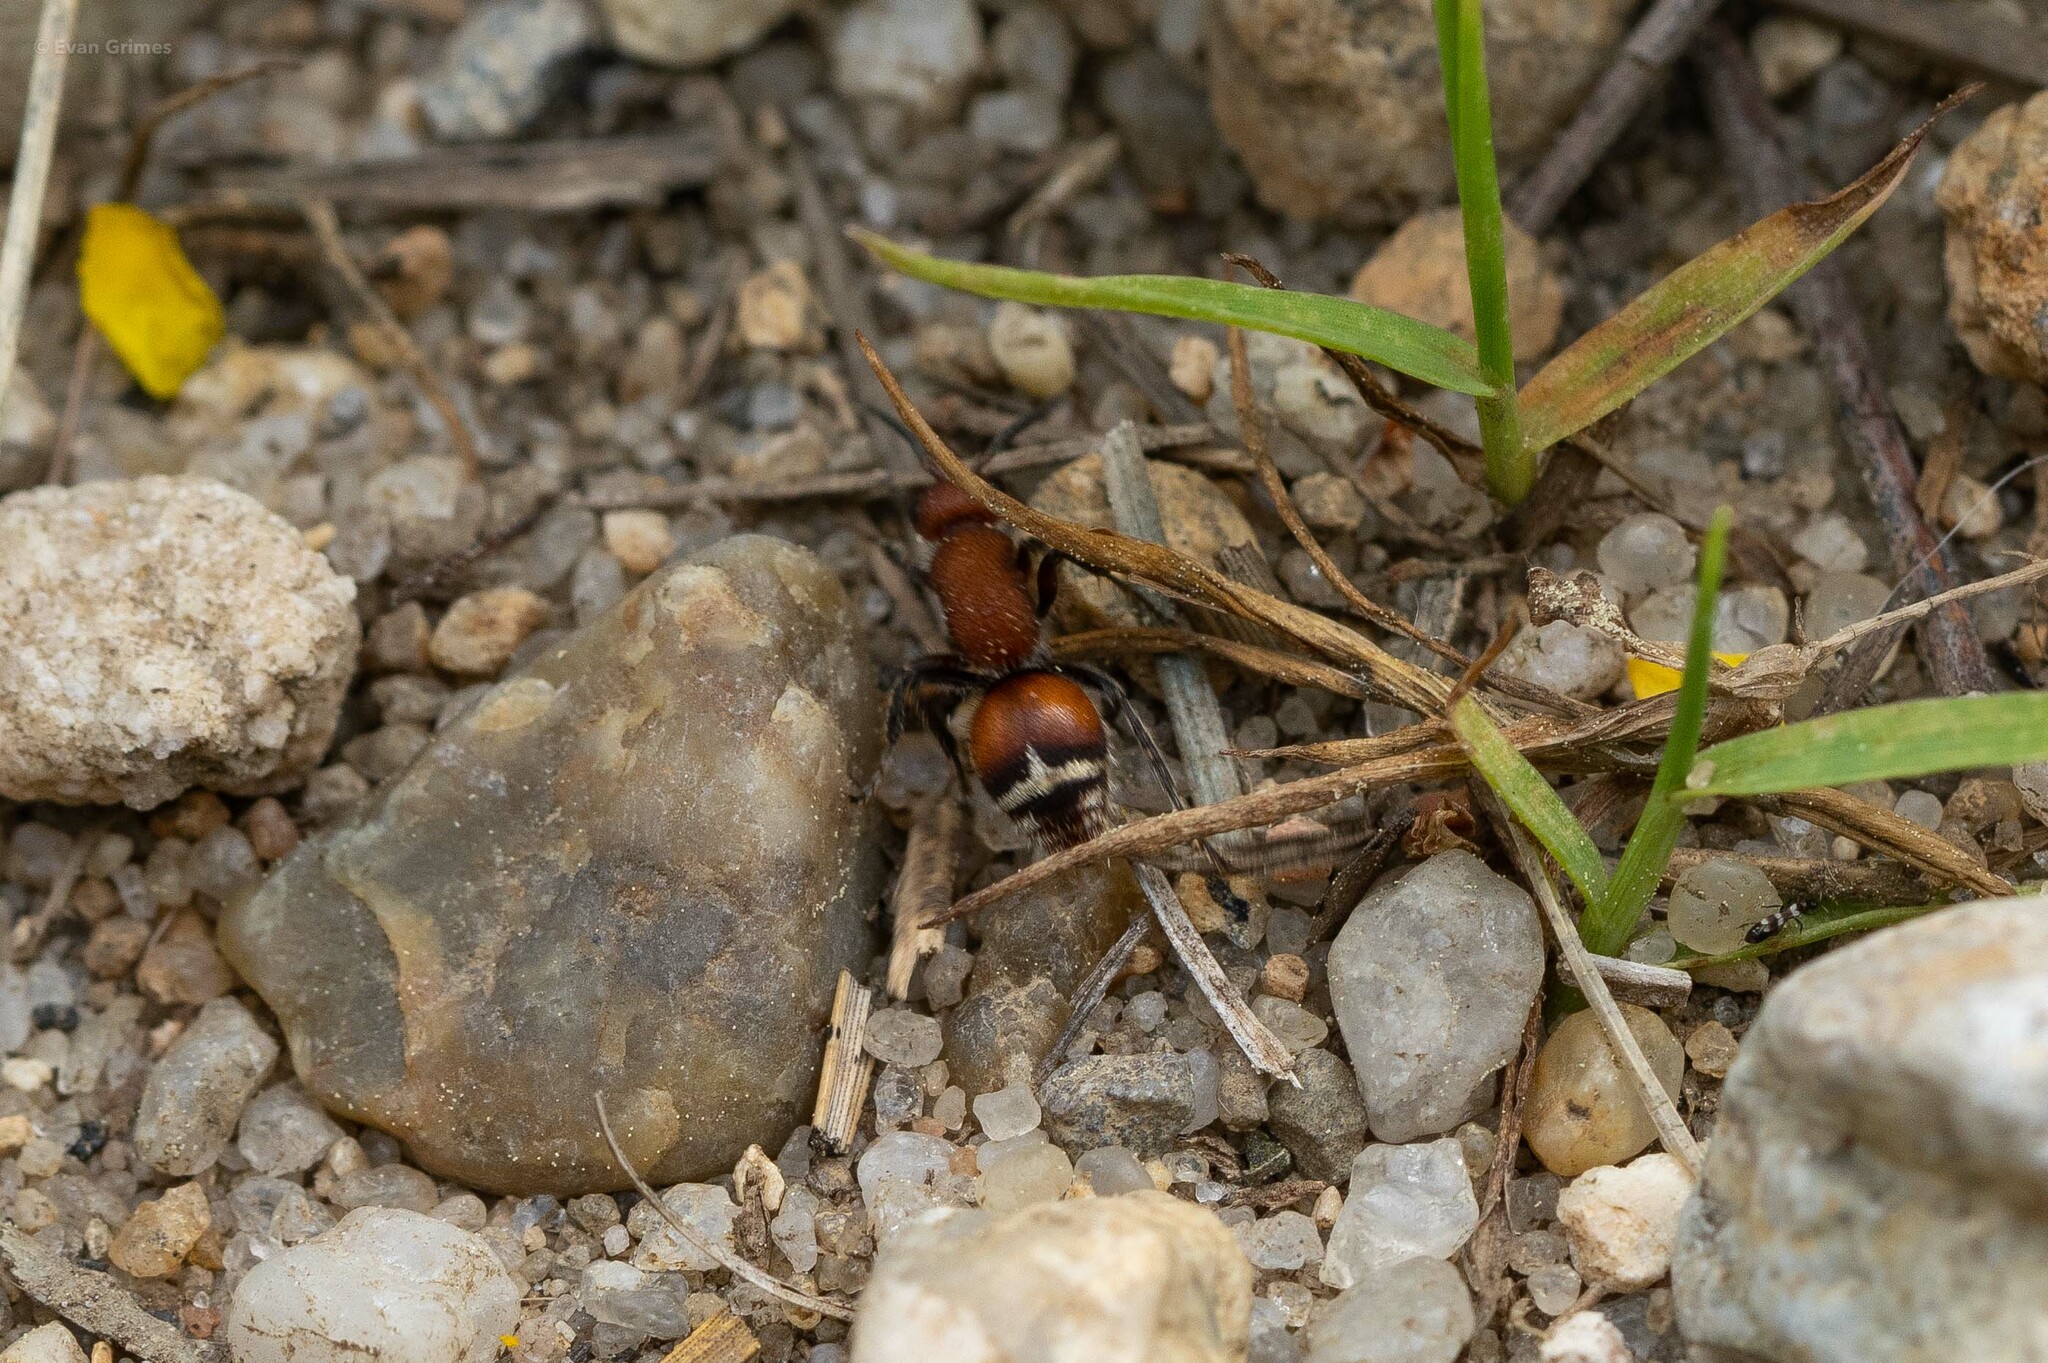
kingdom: Animalia
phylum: Arthropoda
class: Insecta
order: Hymenoptera
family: Mutillidae
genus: Timulla
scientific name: Timulla
